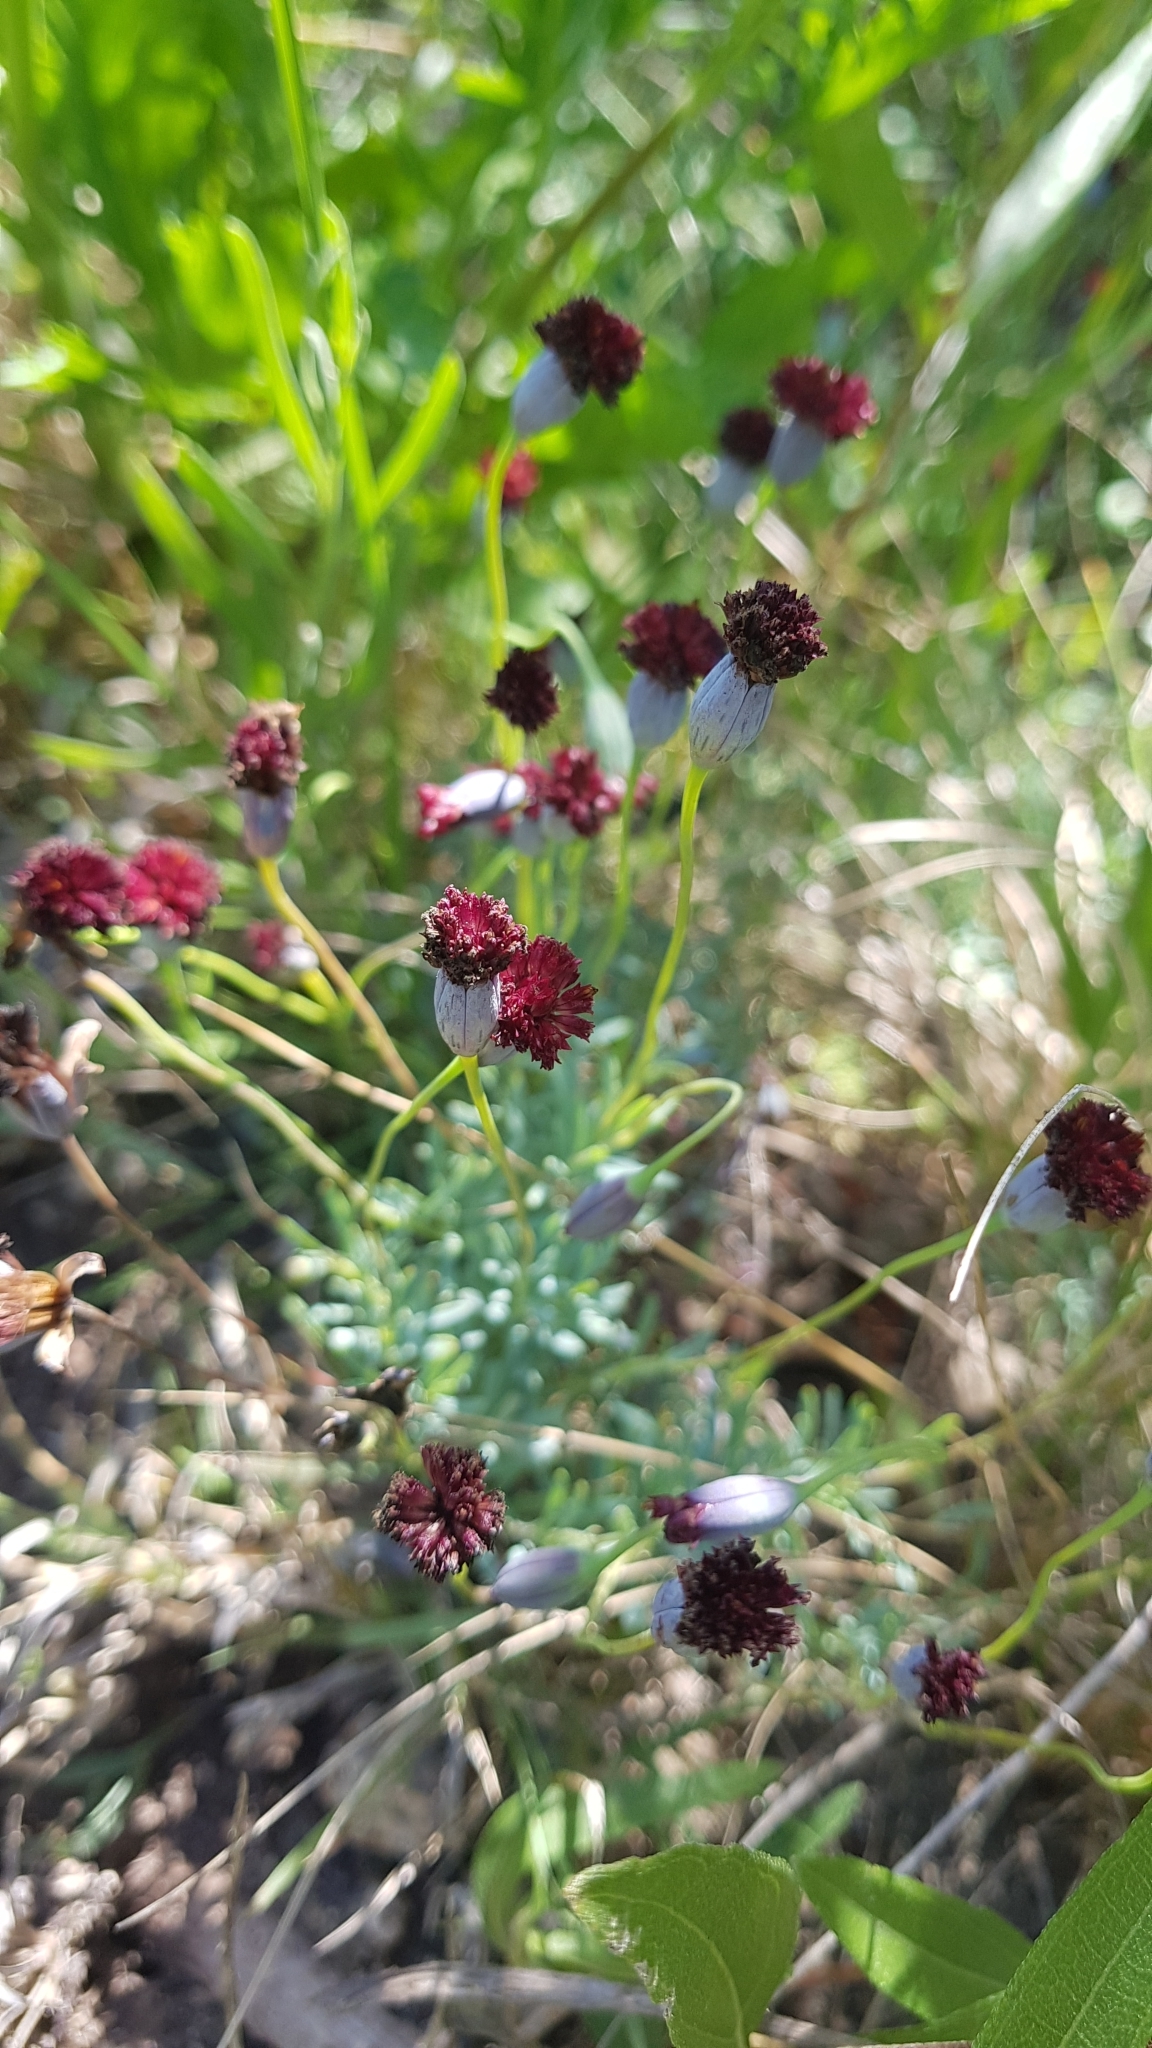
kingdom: Plantae
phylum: Tracheophyta
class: Magnoliopsida
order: Asterales
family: Asteraceae
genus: Porophyllum
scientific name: Porophyllum linifolium
